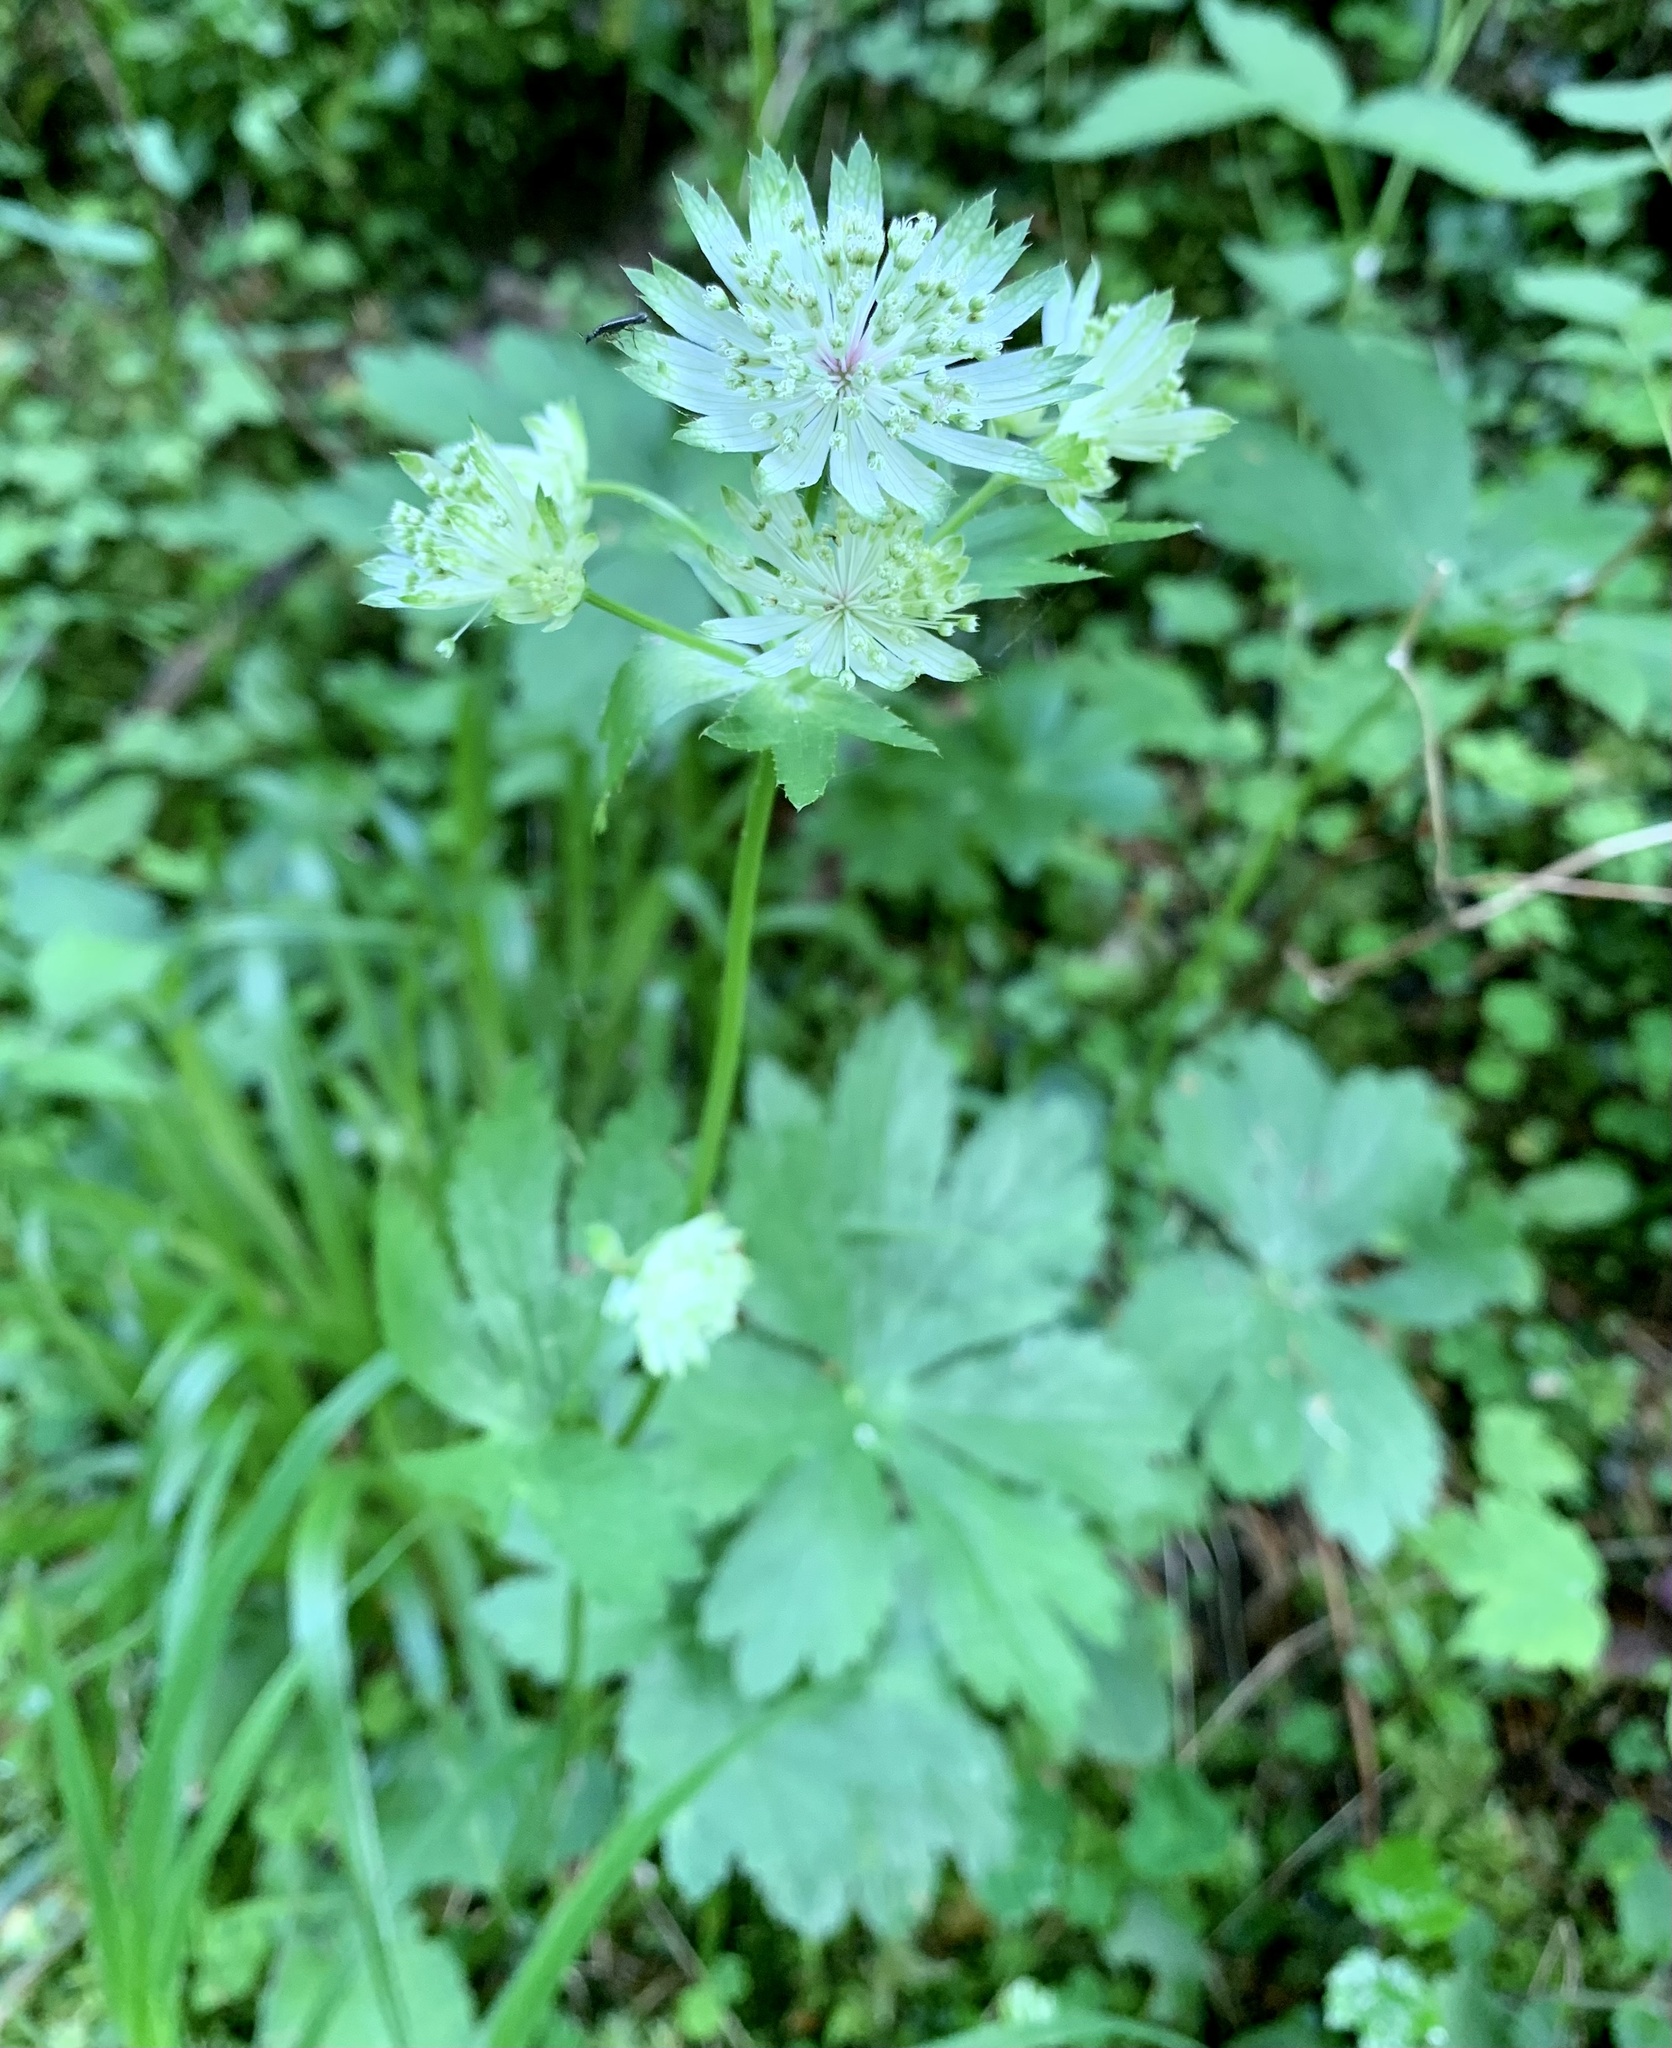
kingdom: Plantae
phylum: Tracheophyta
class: Magnoliopsida
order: Apiales
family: Apiaceae
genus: Astrantia
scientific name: Astrantia major
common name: Greater masterwort
